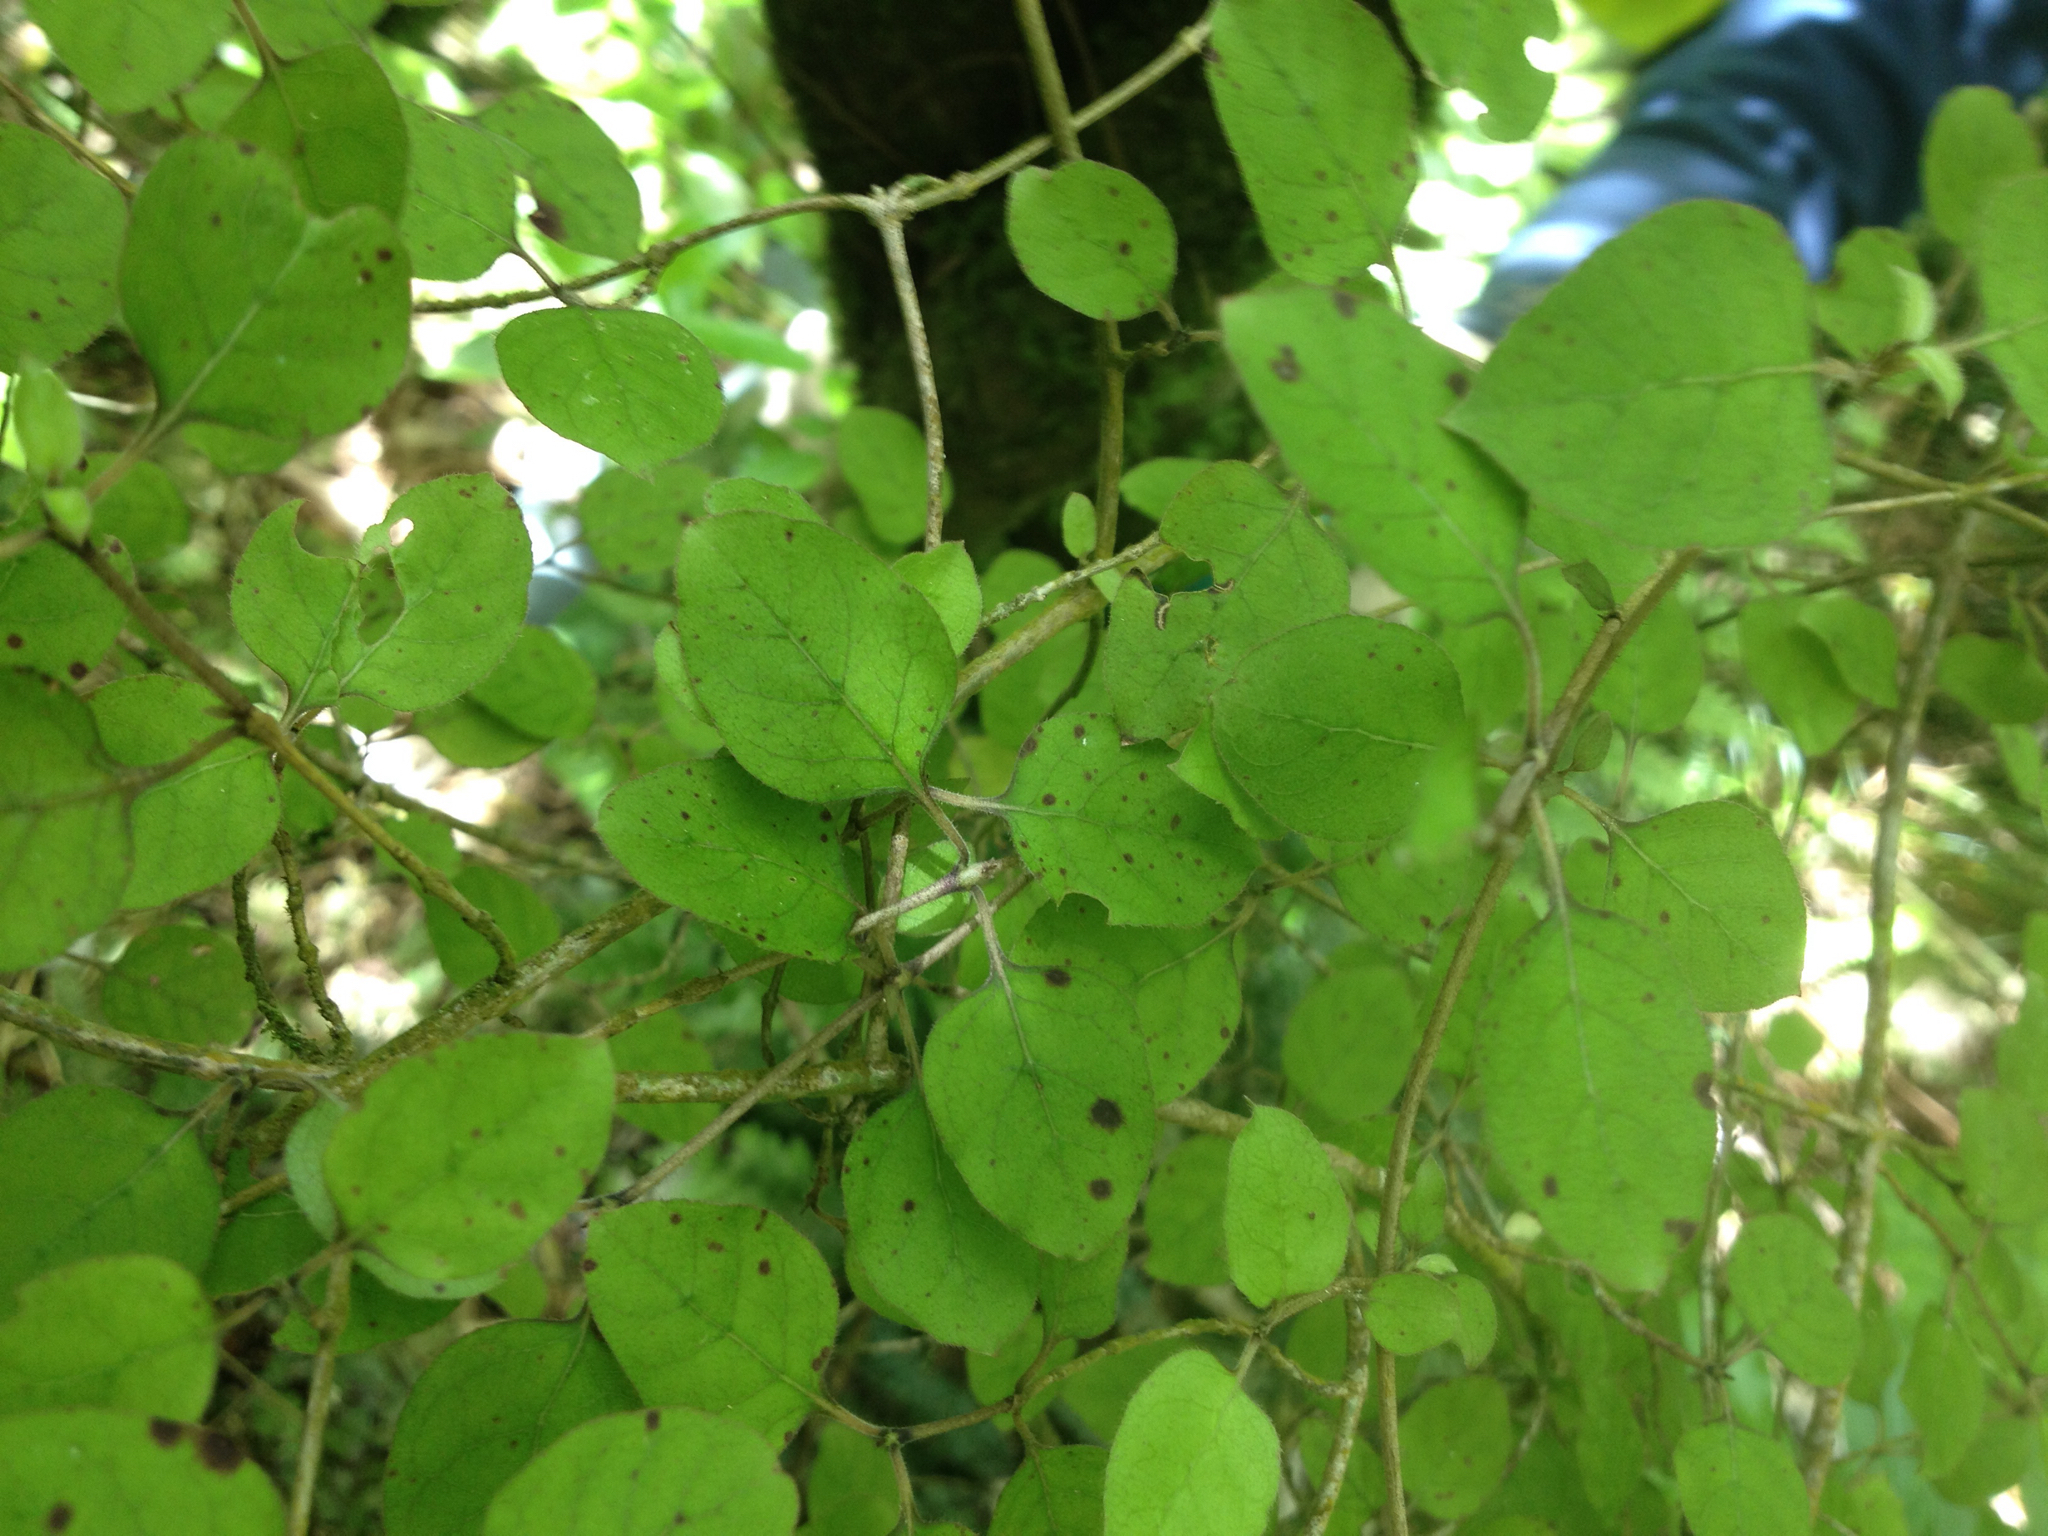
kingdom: Plantae
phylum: Tracheophyta
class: Magnoliopsida
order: Gentianales
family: Rubiaceae
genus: Coprosma
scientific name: Coprosma rotundifolia
